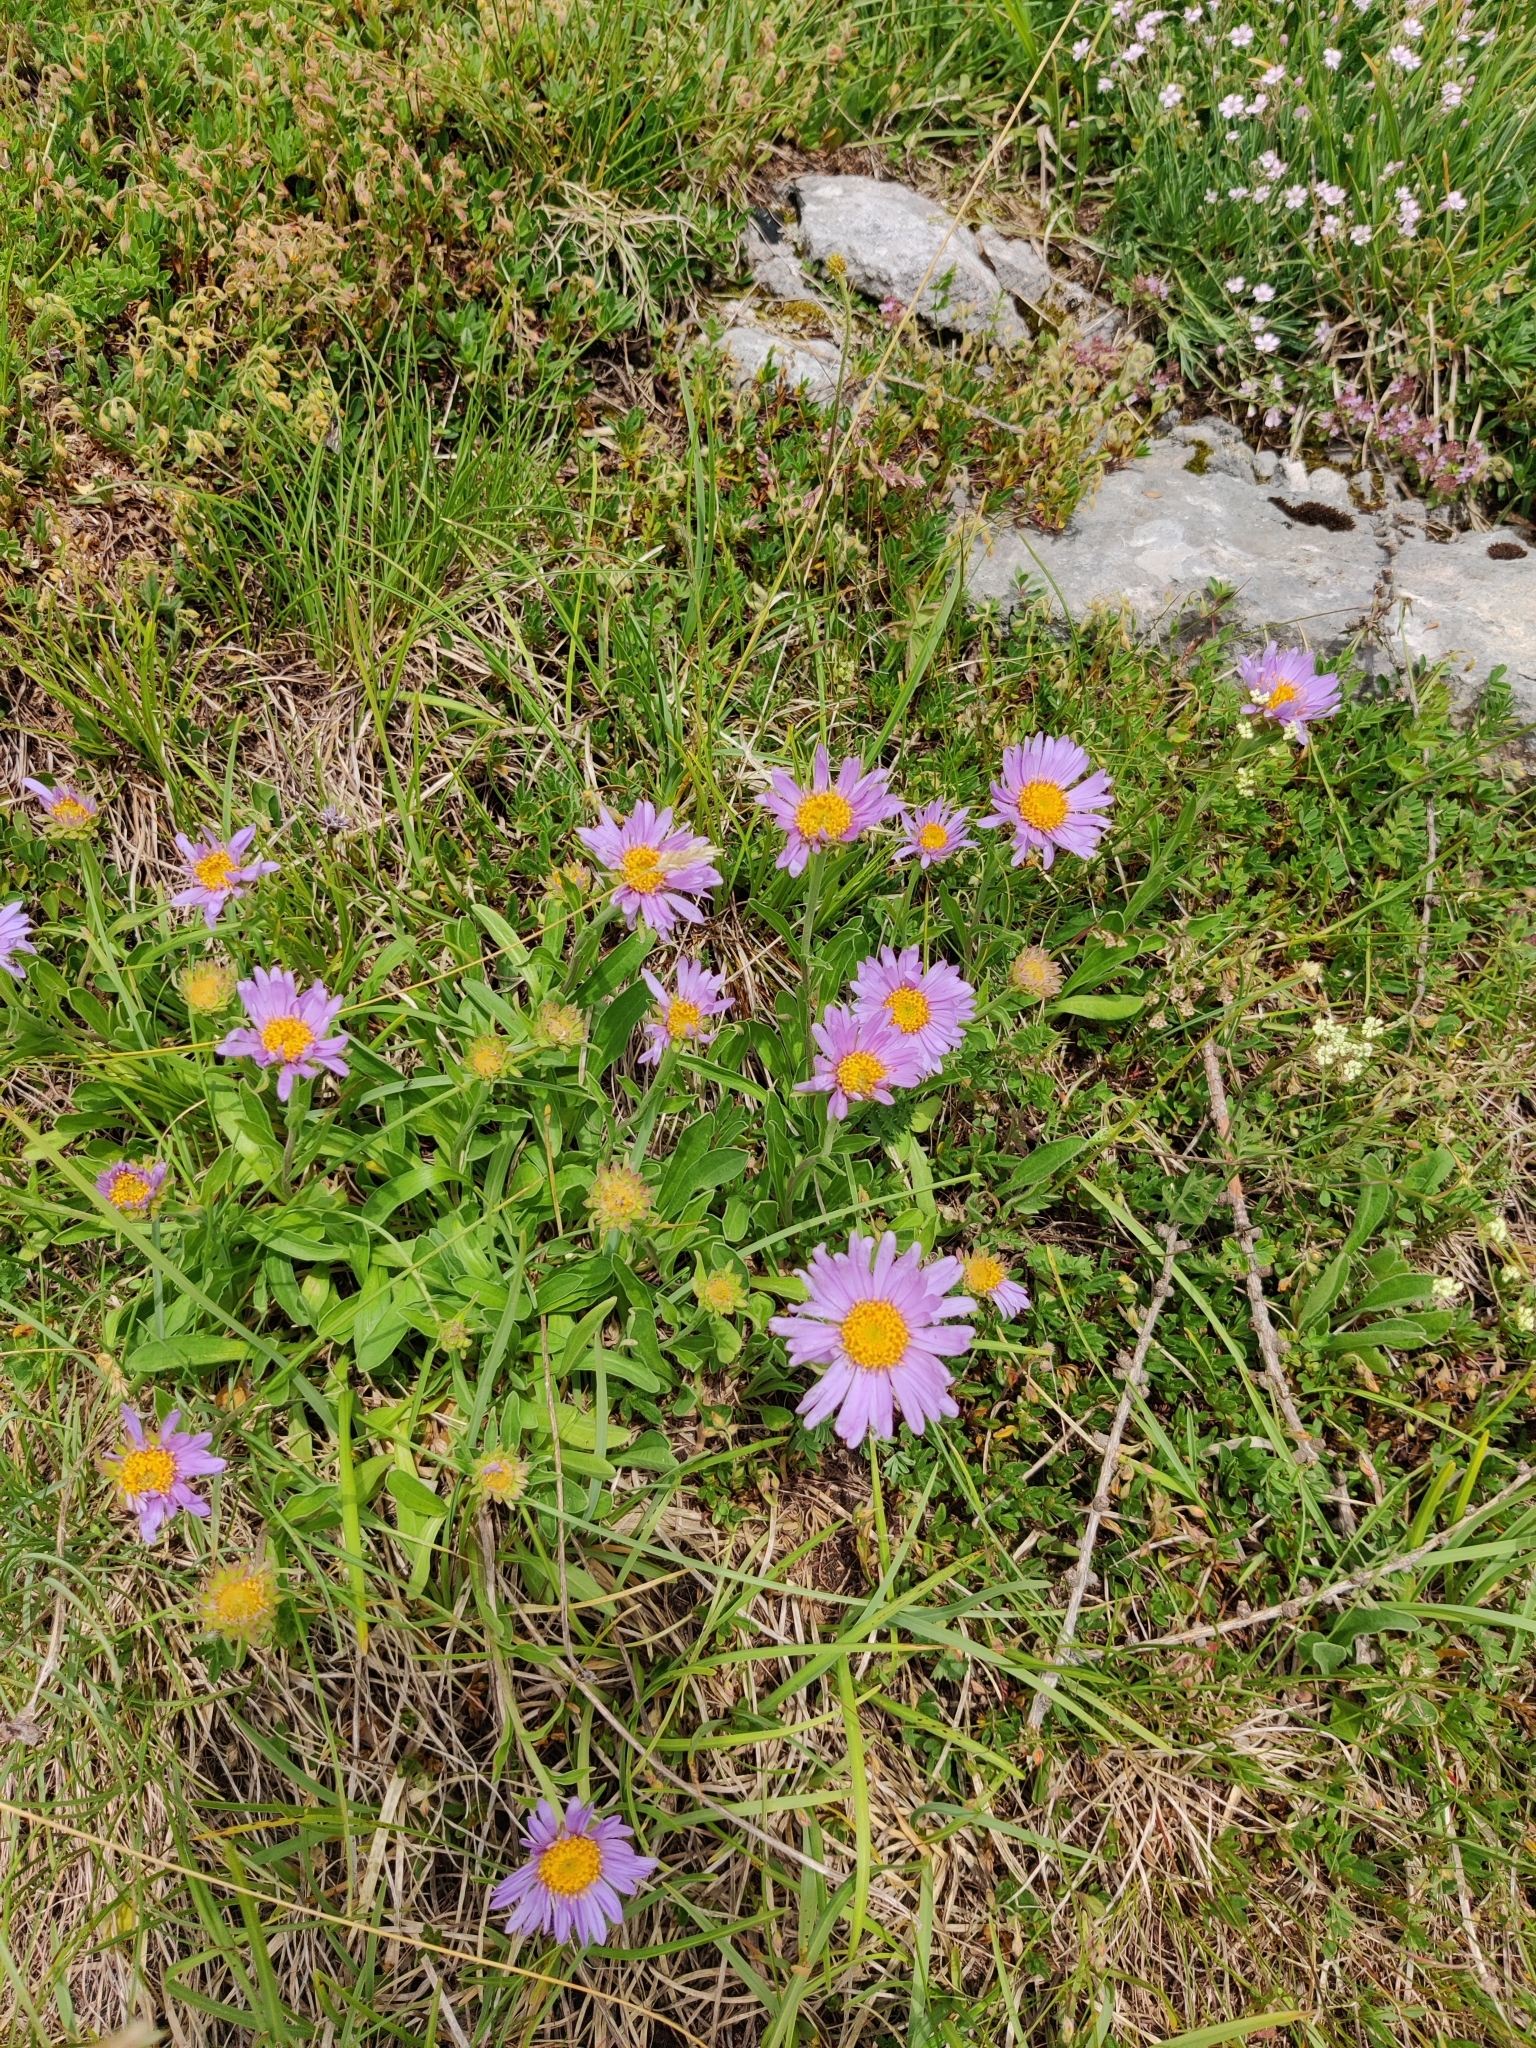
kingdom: Plantae
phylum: Tracheophyta
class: Magnoliopsida
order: Asterales
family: Asteraceae
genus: Aster
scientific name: Aster alpinus
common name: Alpine aster
